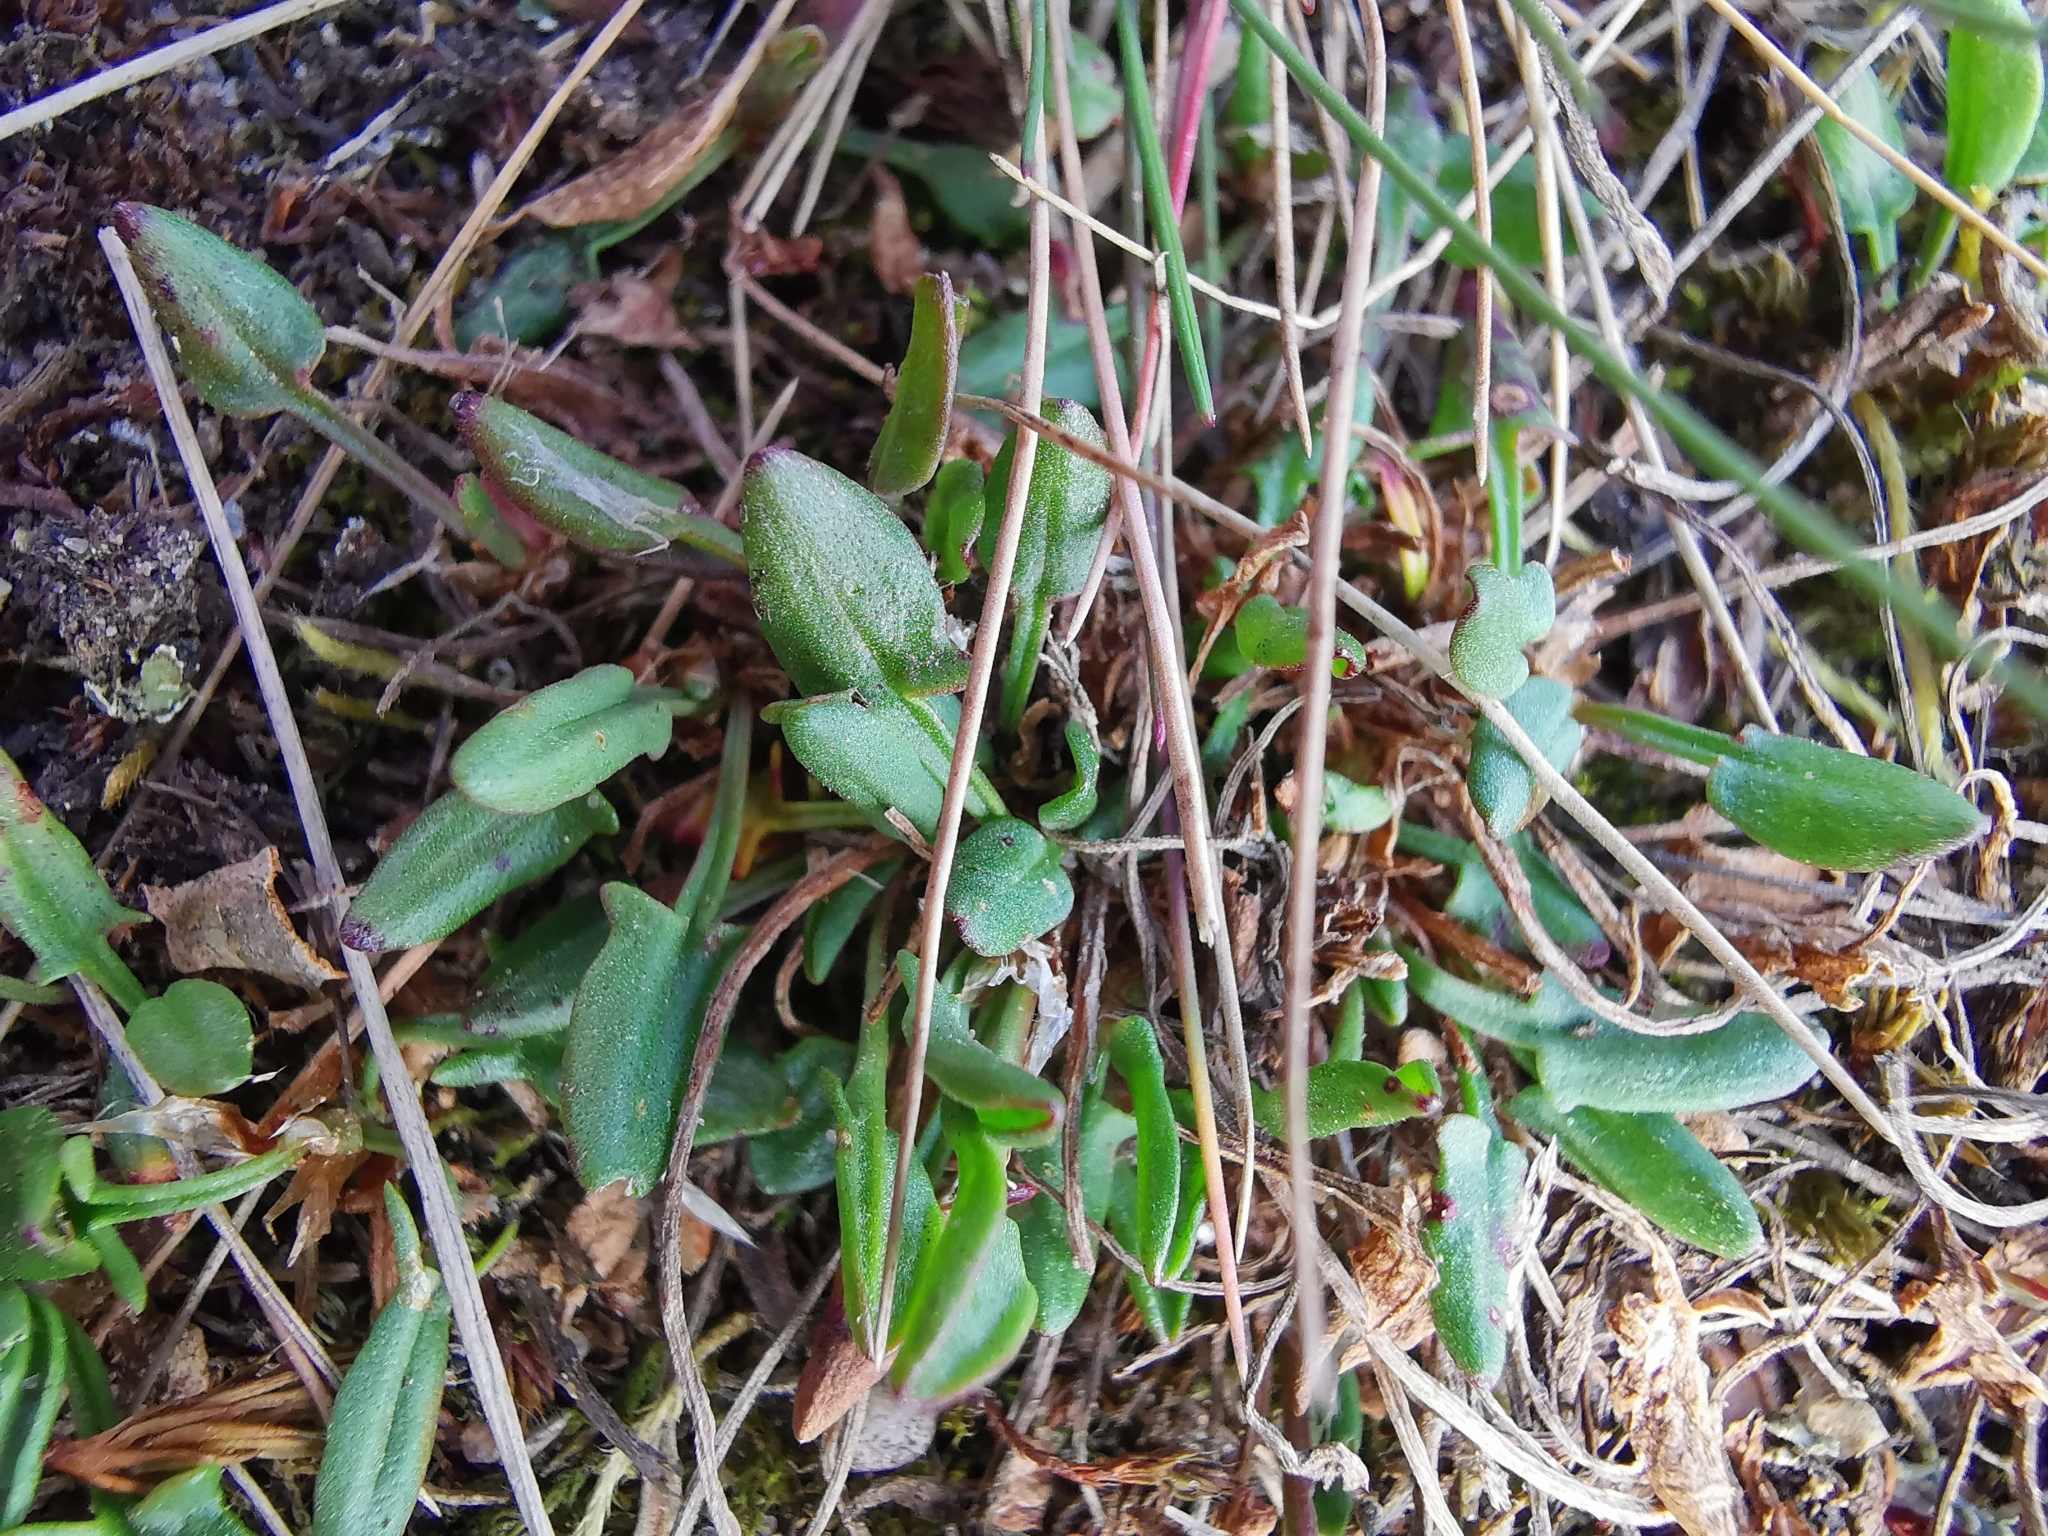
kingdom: Plantae
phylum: Tracheophyta
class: Magnoliopsida
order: Caryophyllales
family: Polygonaceae
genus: Rumex
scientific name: Rumex acetosella
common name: Common sheep sorrel
